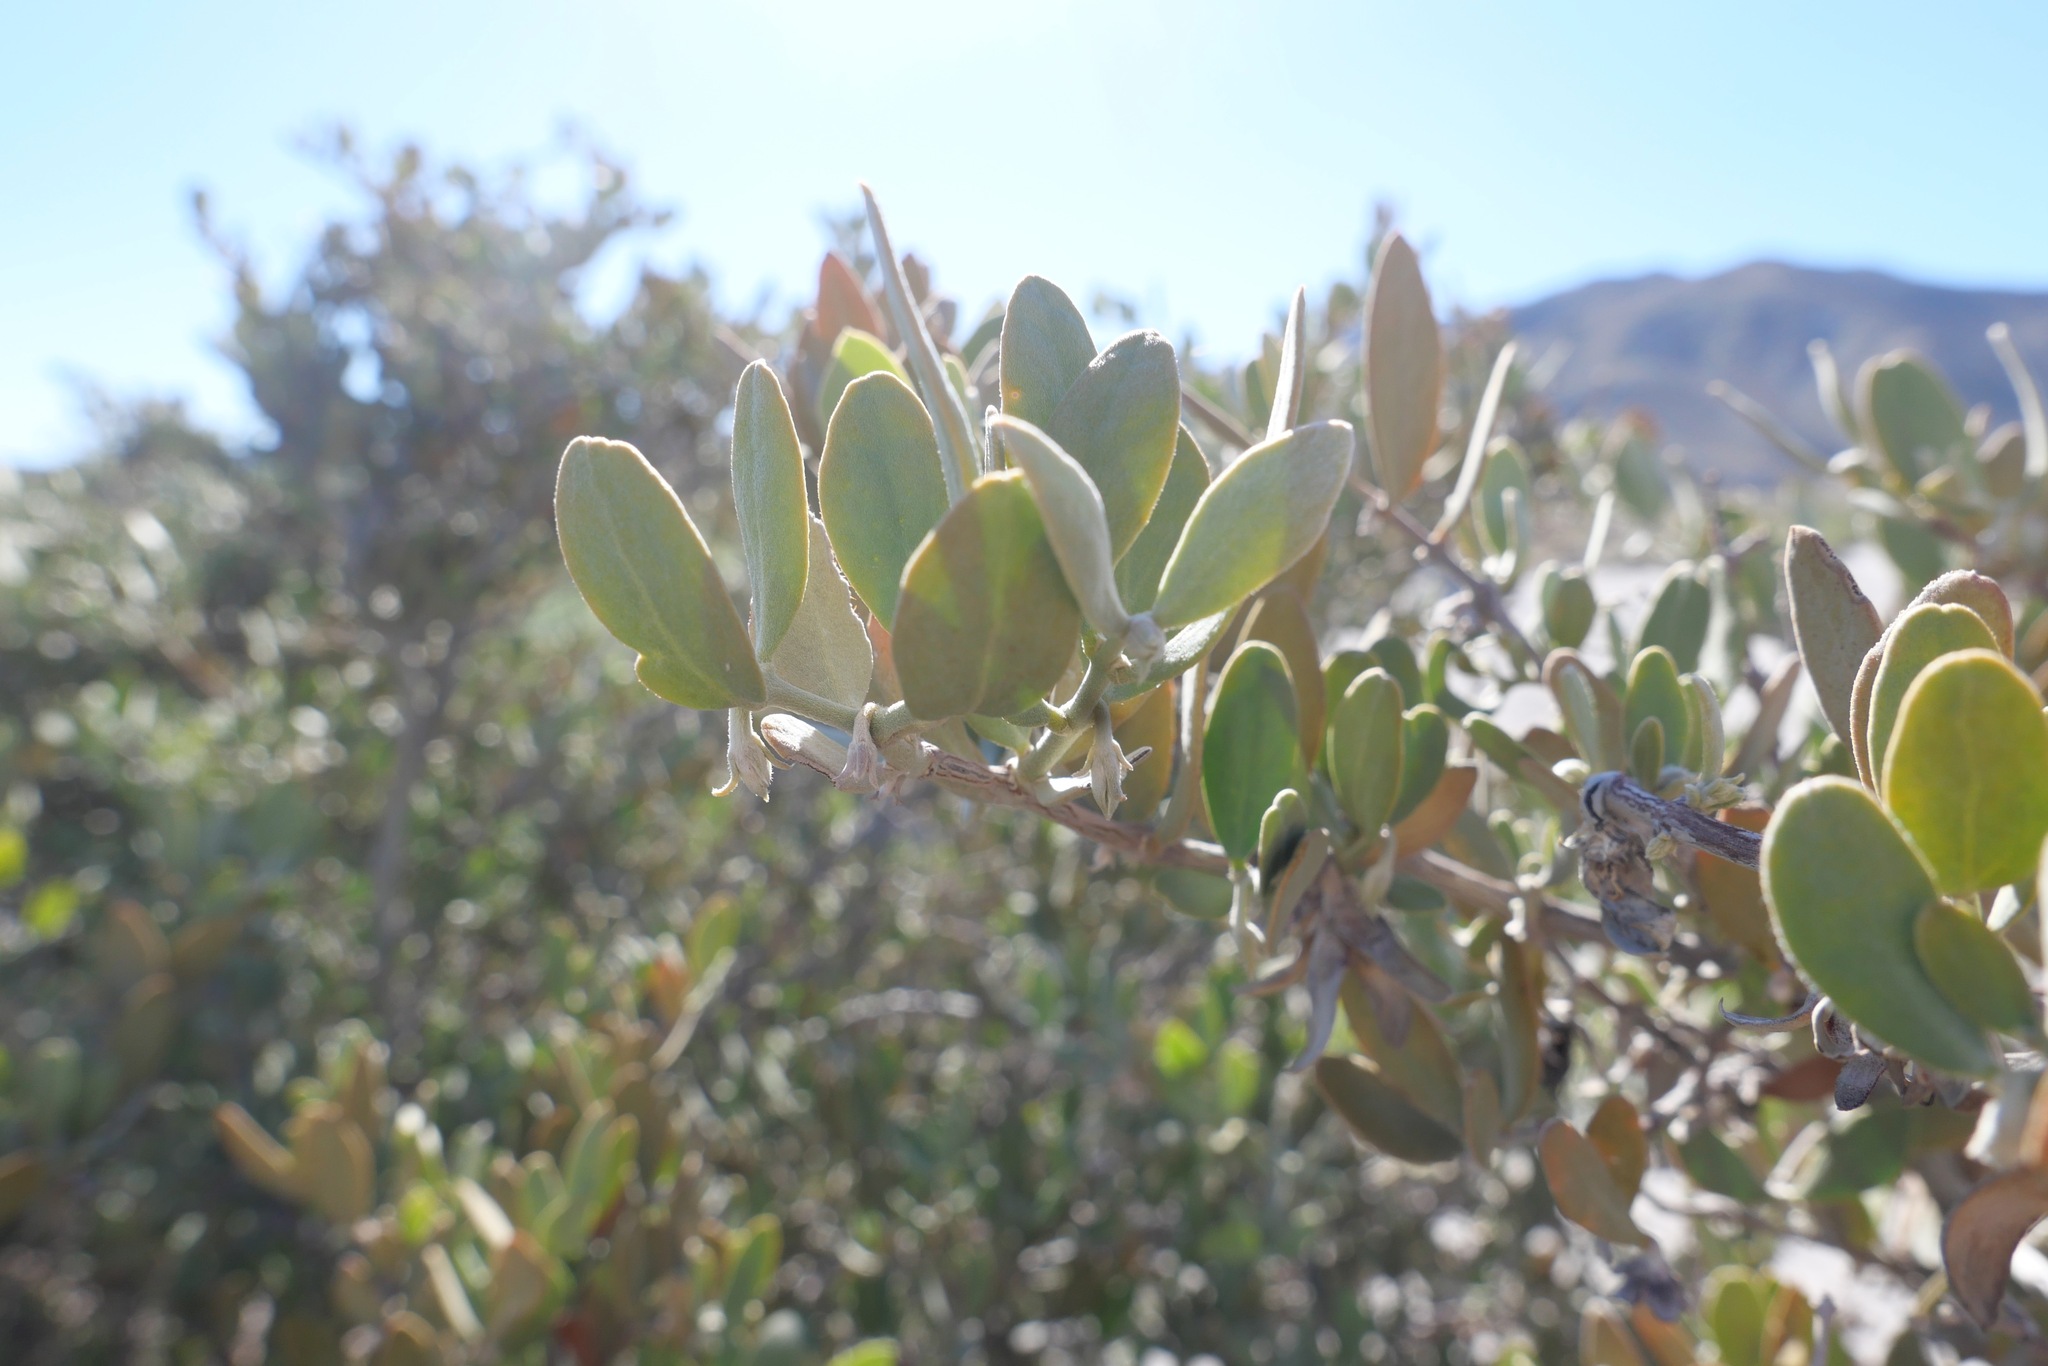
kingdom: Plantae
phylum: Tracheophyta
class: Magnoliopsida
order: Caryophyllales
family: Simmondsiaceae
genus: Simmondsia
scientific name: Simmondsia chinensis
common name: Jojoba
